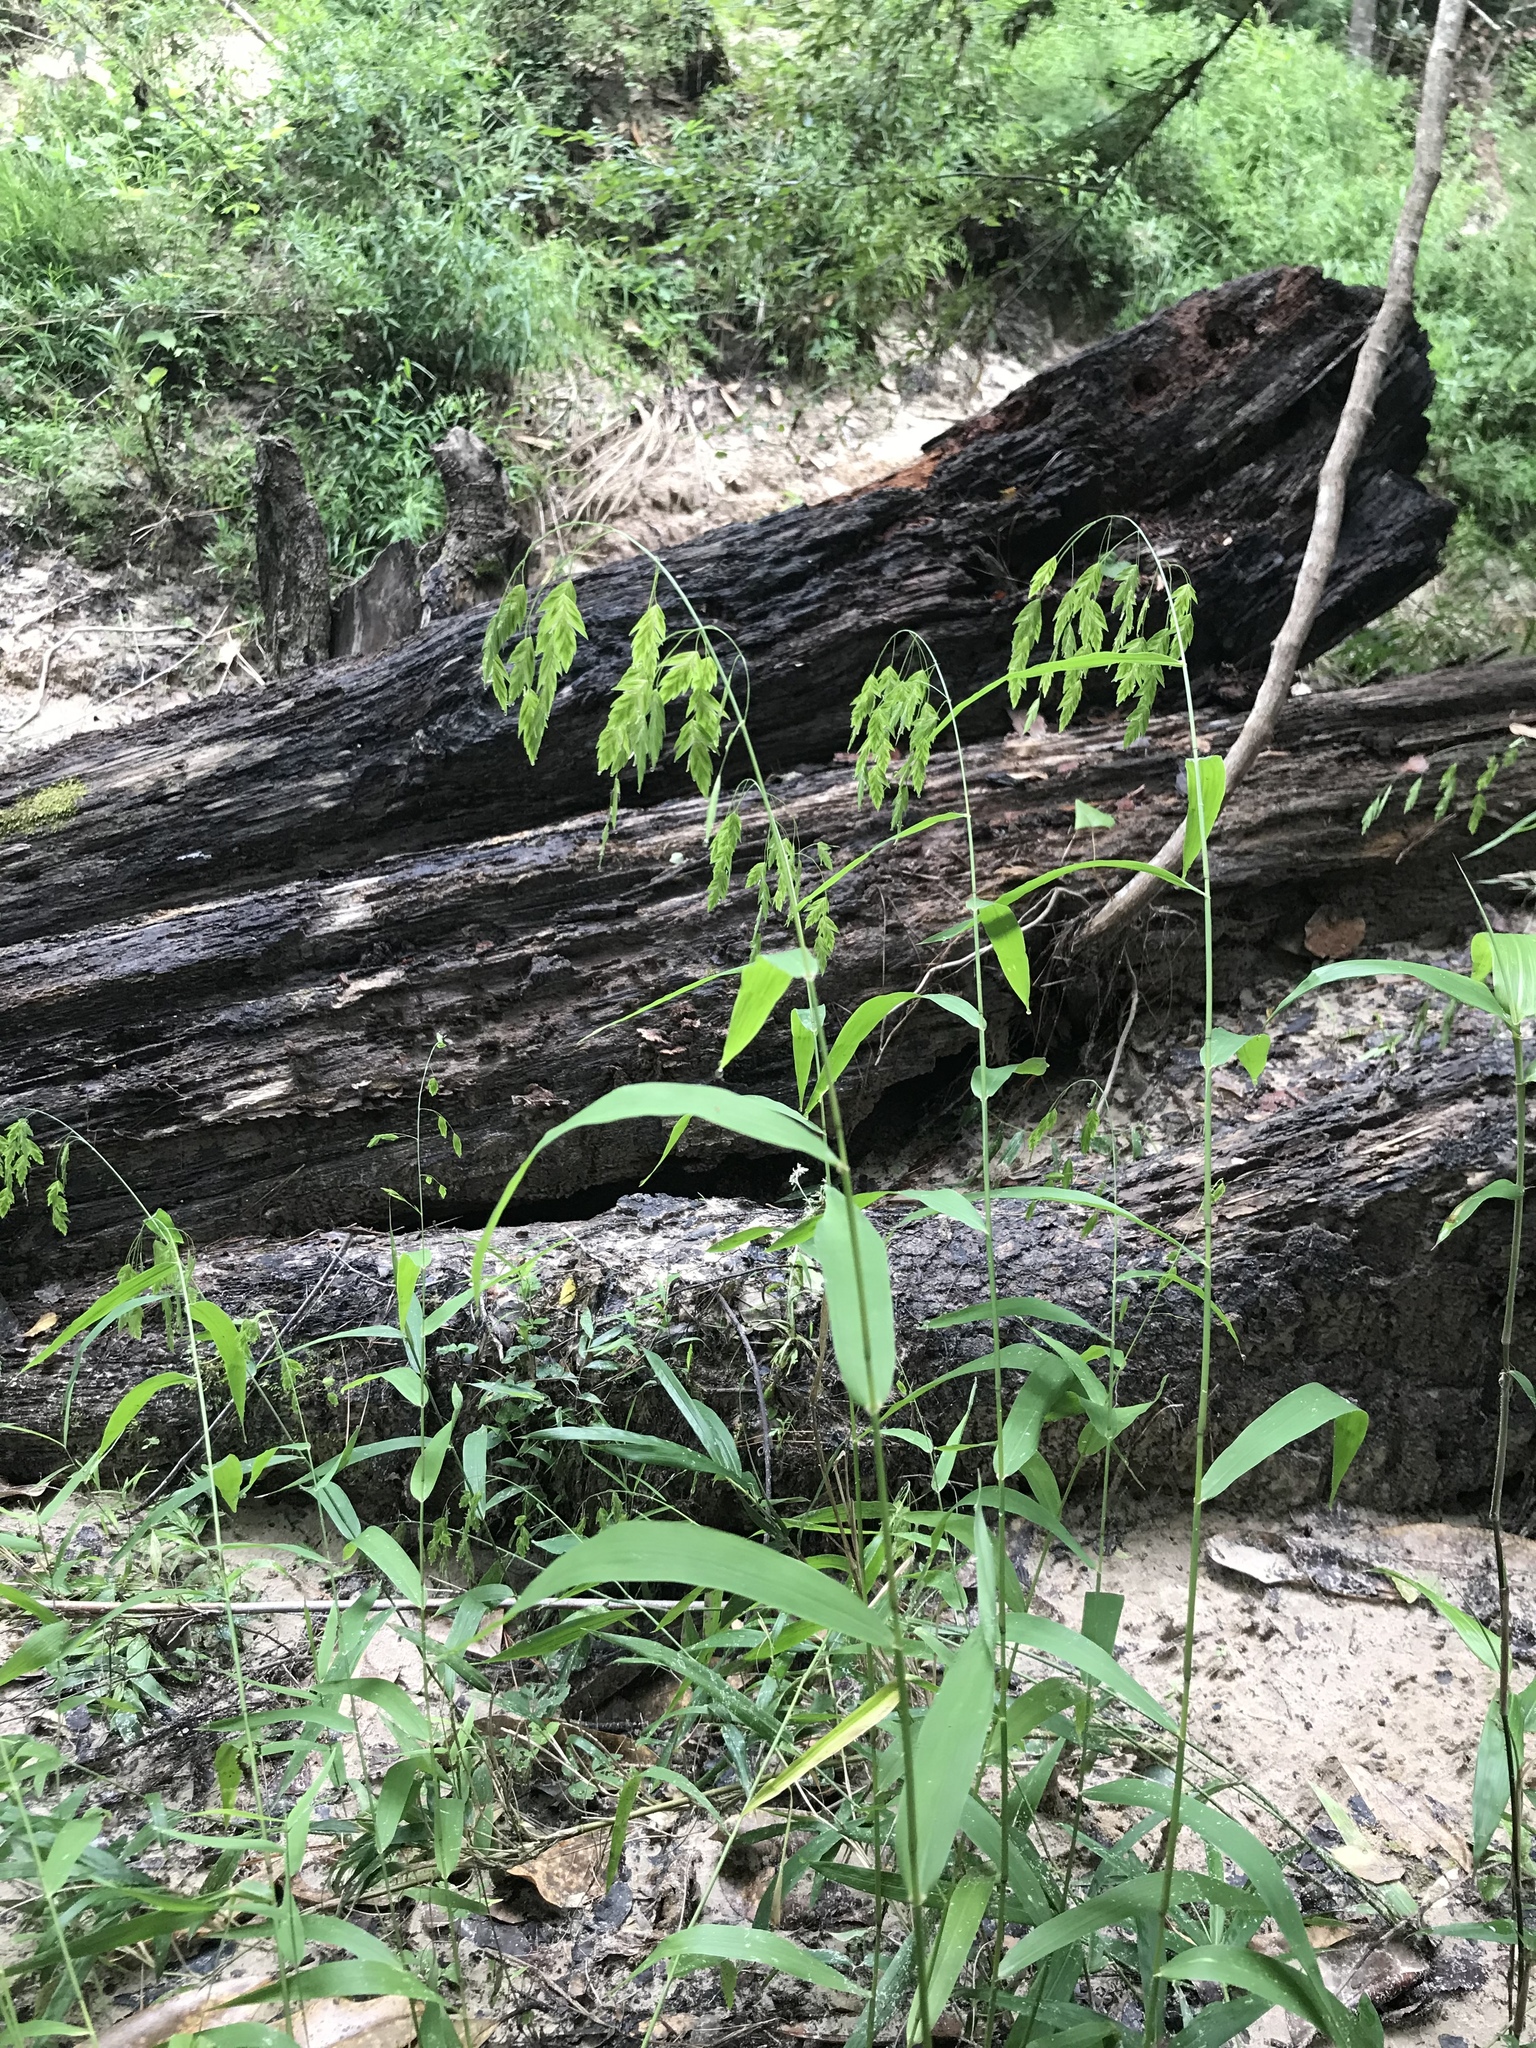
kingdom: Plantae
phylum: Tracheophyta
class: Liliopsida
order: Poales
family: Poaceae
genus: Chasmanthium
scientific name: Chasmanthium latifolium
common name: Broad-leaved chasmanthium
